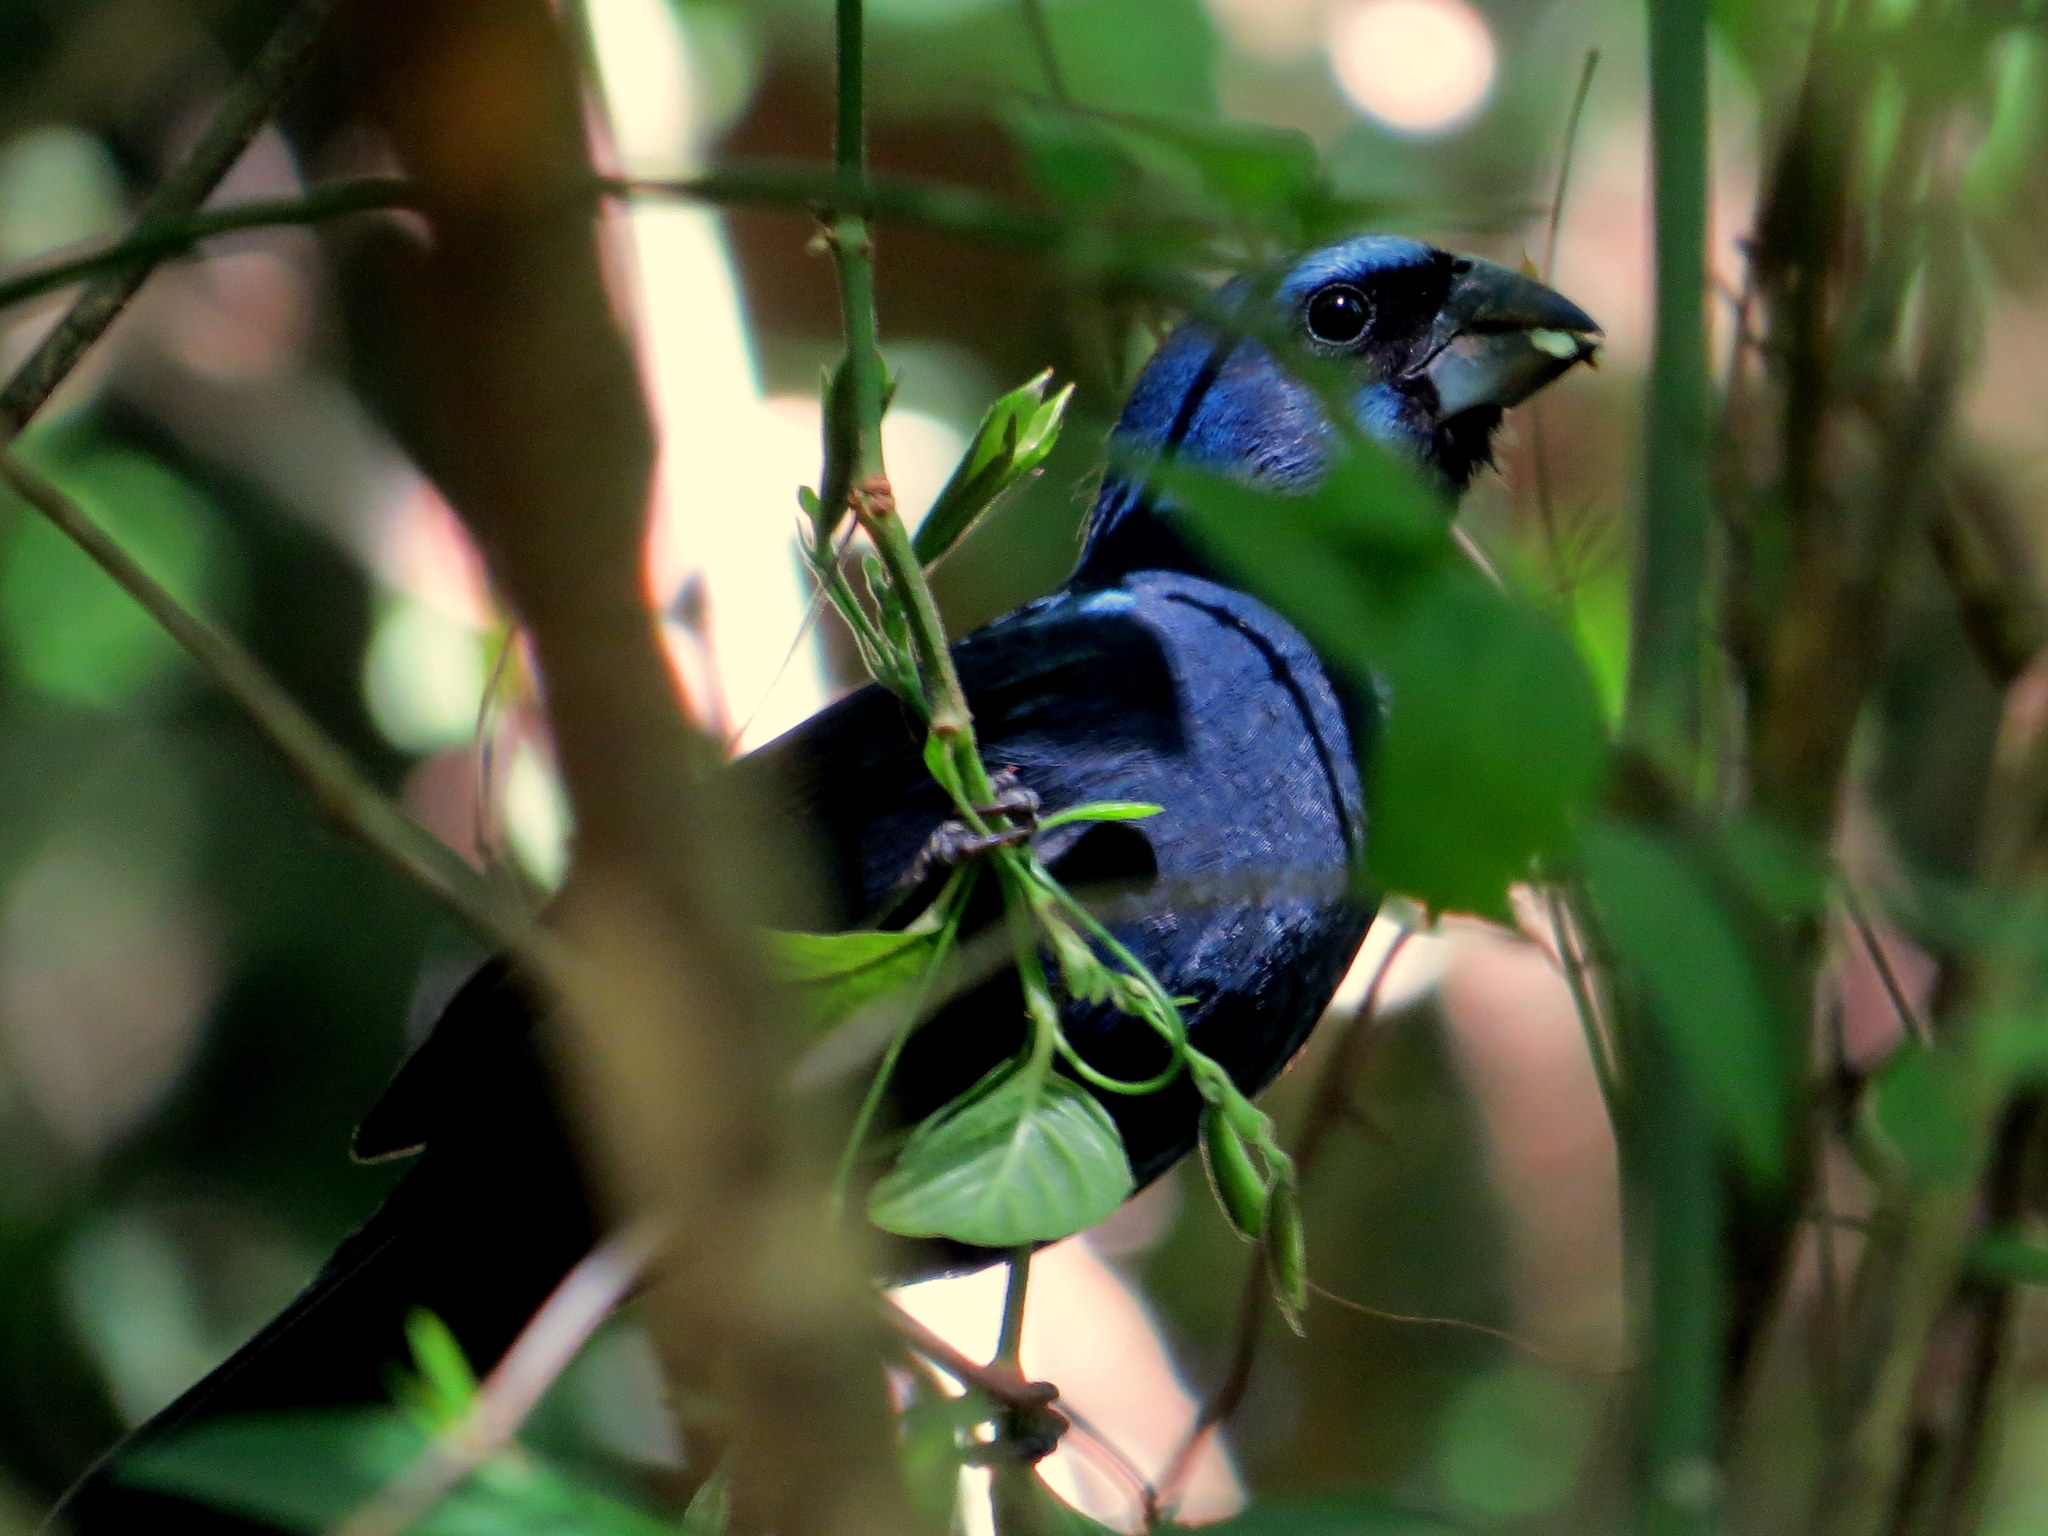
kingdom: Animalia
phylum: Chordata
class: Aves
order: Passeriformes
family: Cardinalidae
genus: Cyanoloxia
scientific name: Cyanoloxia brissonii
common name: Ultramarine grosbeak
